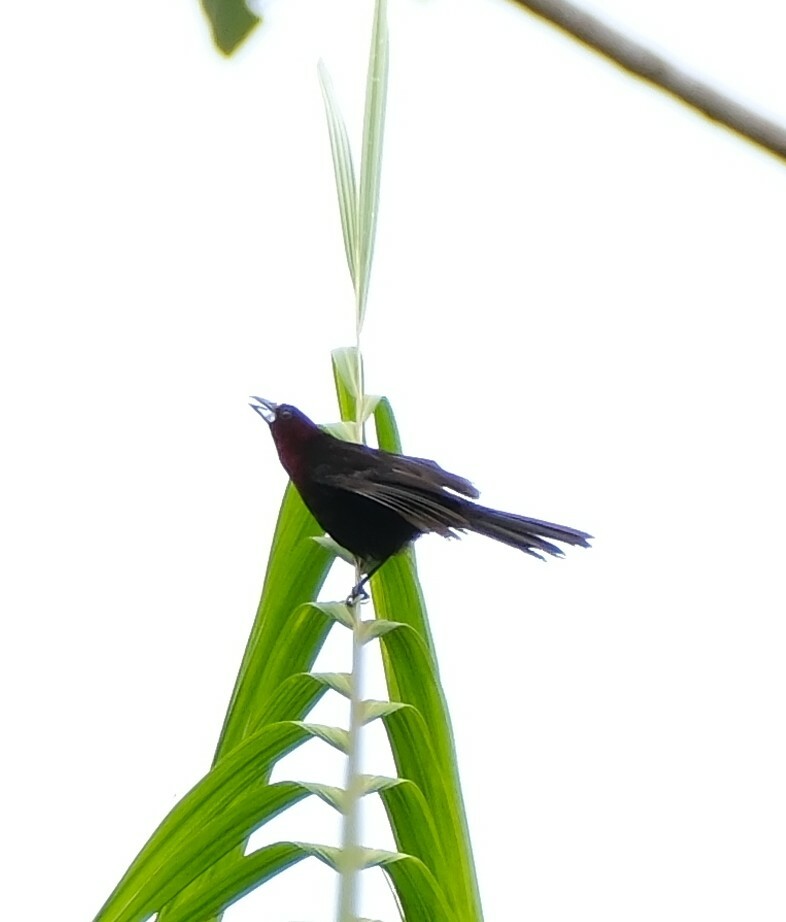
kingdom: Animalia
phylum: Chordata
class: Aves
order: Passeriformes
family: Thraupidae
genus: Ramphocelus
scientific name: Ramphocelus carbo
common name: Silver-beaked tanager
